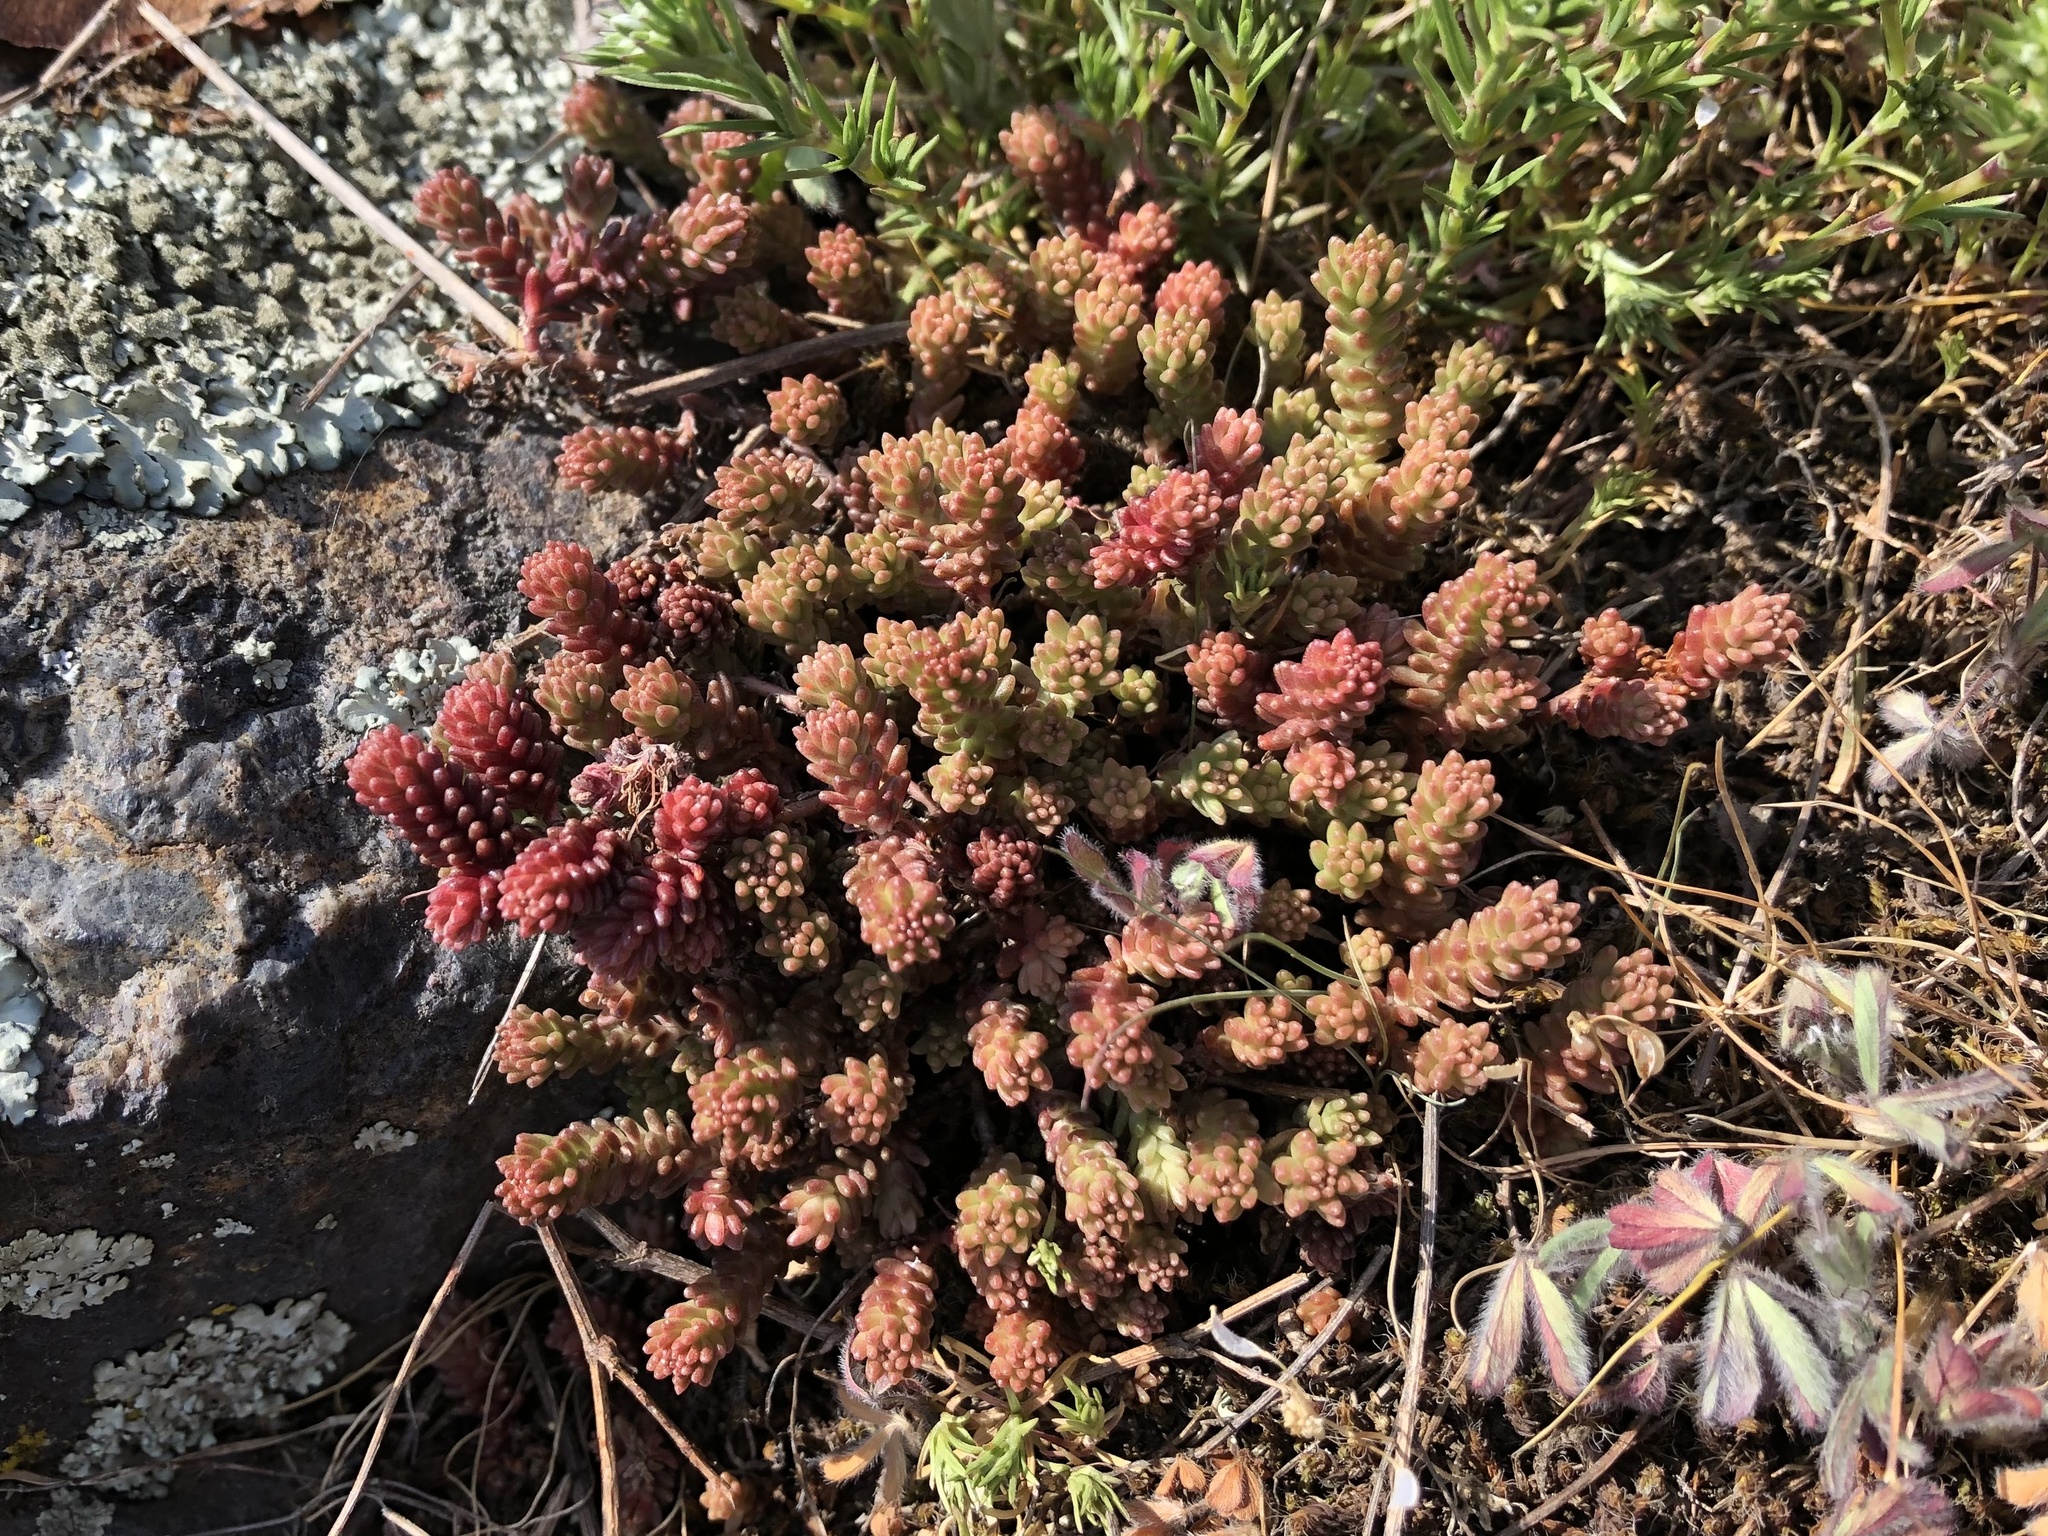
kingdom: Plantae
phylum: Tracheophyta
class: Magnoliopsida
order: Saxifragales
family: Crassulaceae
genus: Sedum
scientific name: Sedum sexangulare
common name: Tasteless stonecrop
